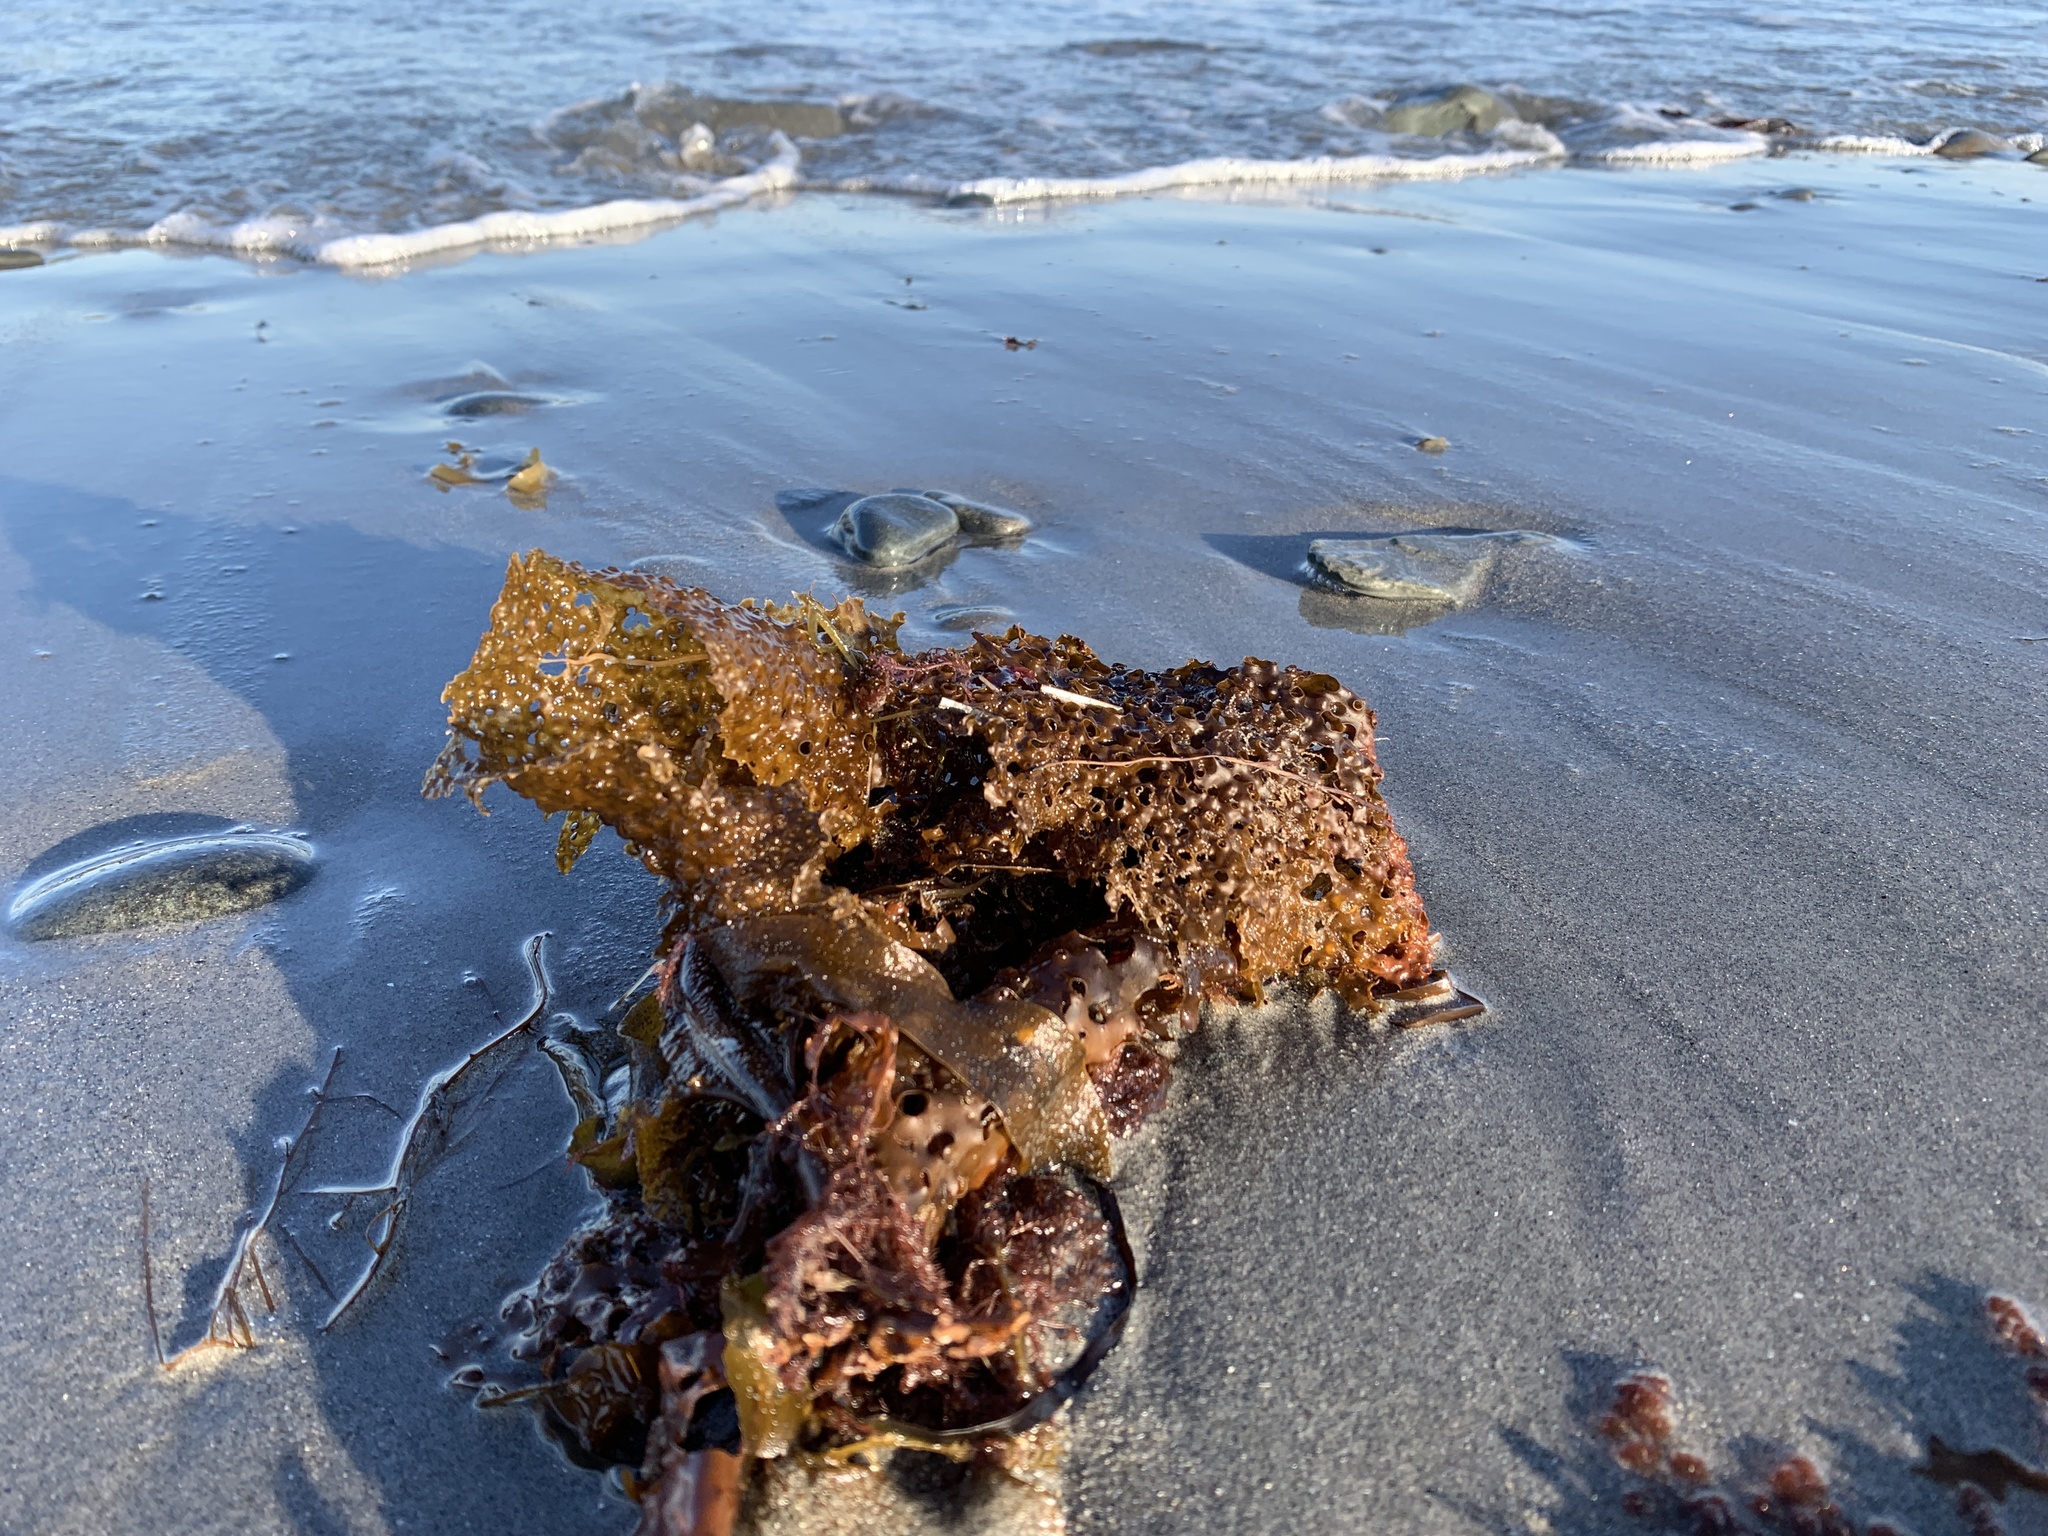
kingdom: Chromista
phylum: Ochrophyta
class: Phaeophyceae
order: Laminariales
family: Costariaceae
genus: Agarum
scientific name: Agarum clathratum
